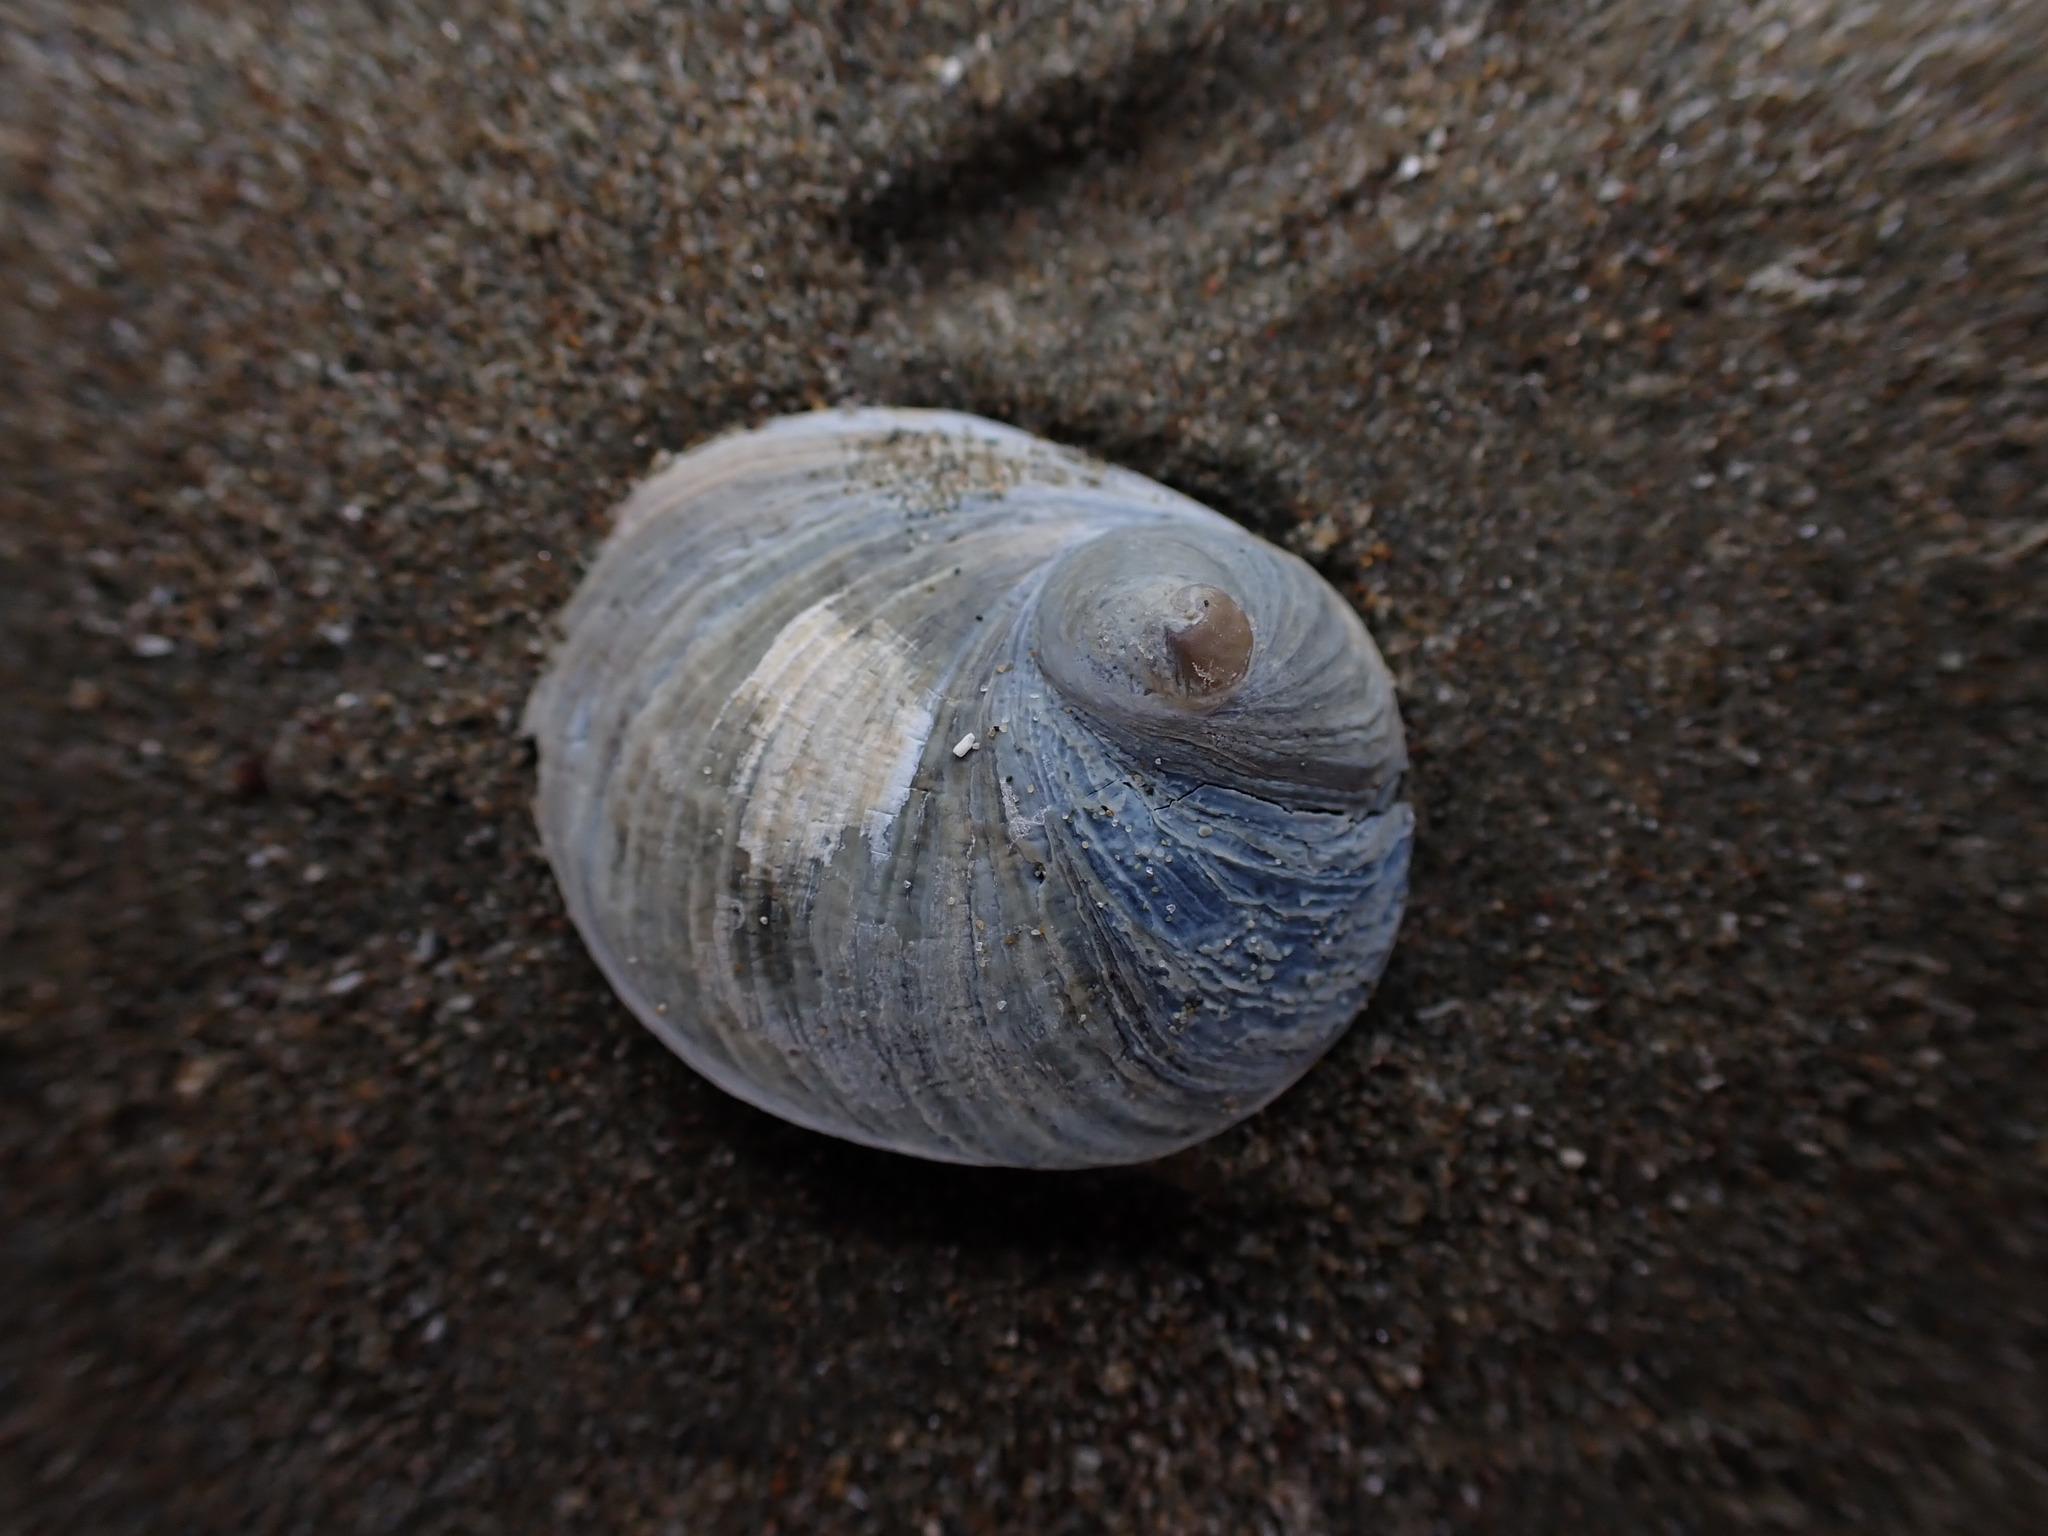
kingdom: Animalia
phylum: Mollusca
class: Gastropoda
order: Littorinimorpha
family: Calyptraeidae
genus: Sigapatella
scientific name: Sigapatella novaezelandiae
